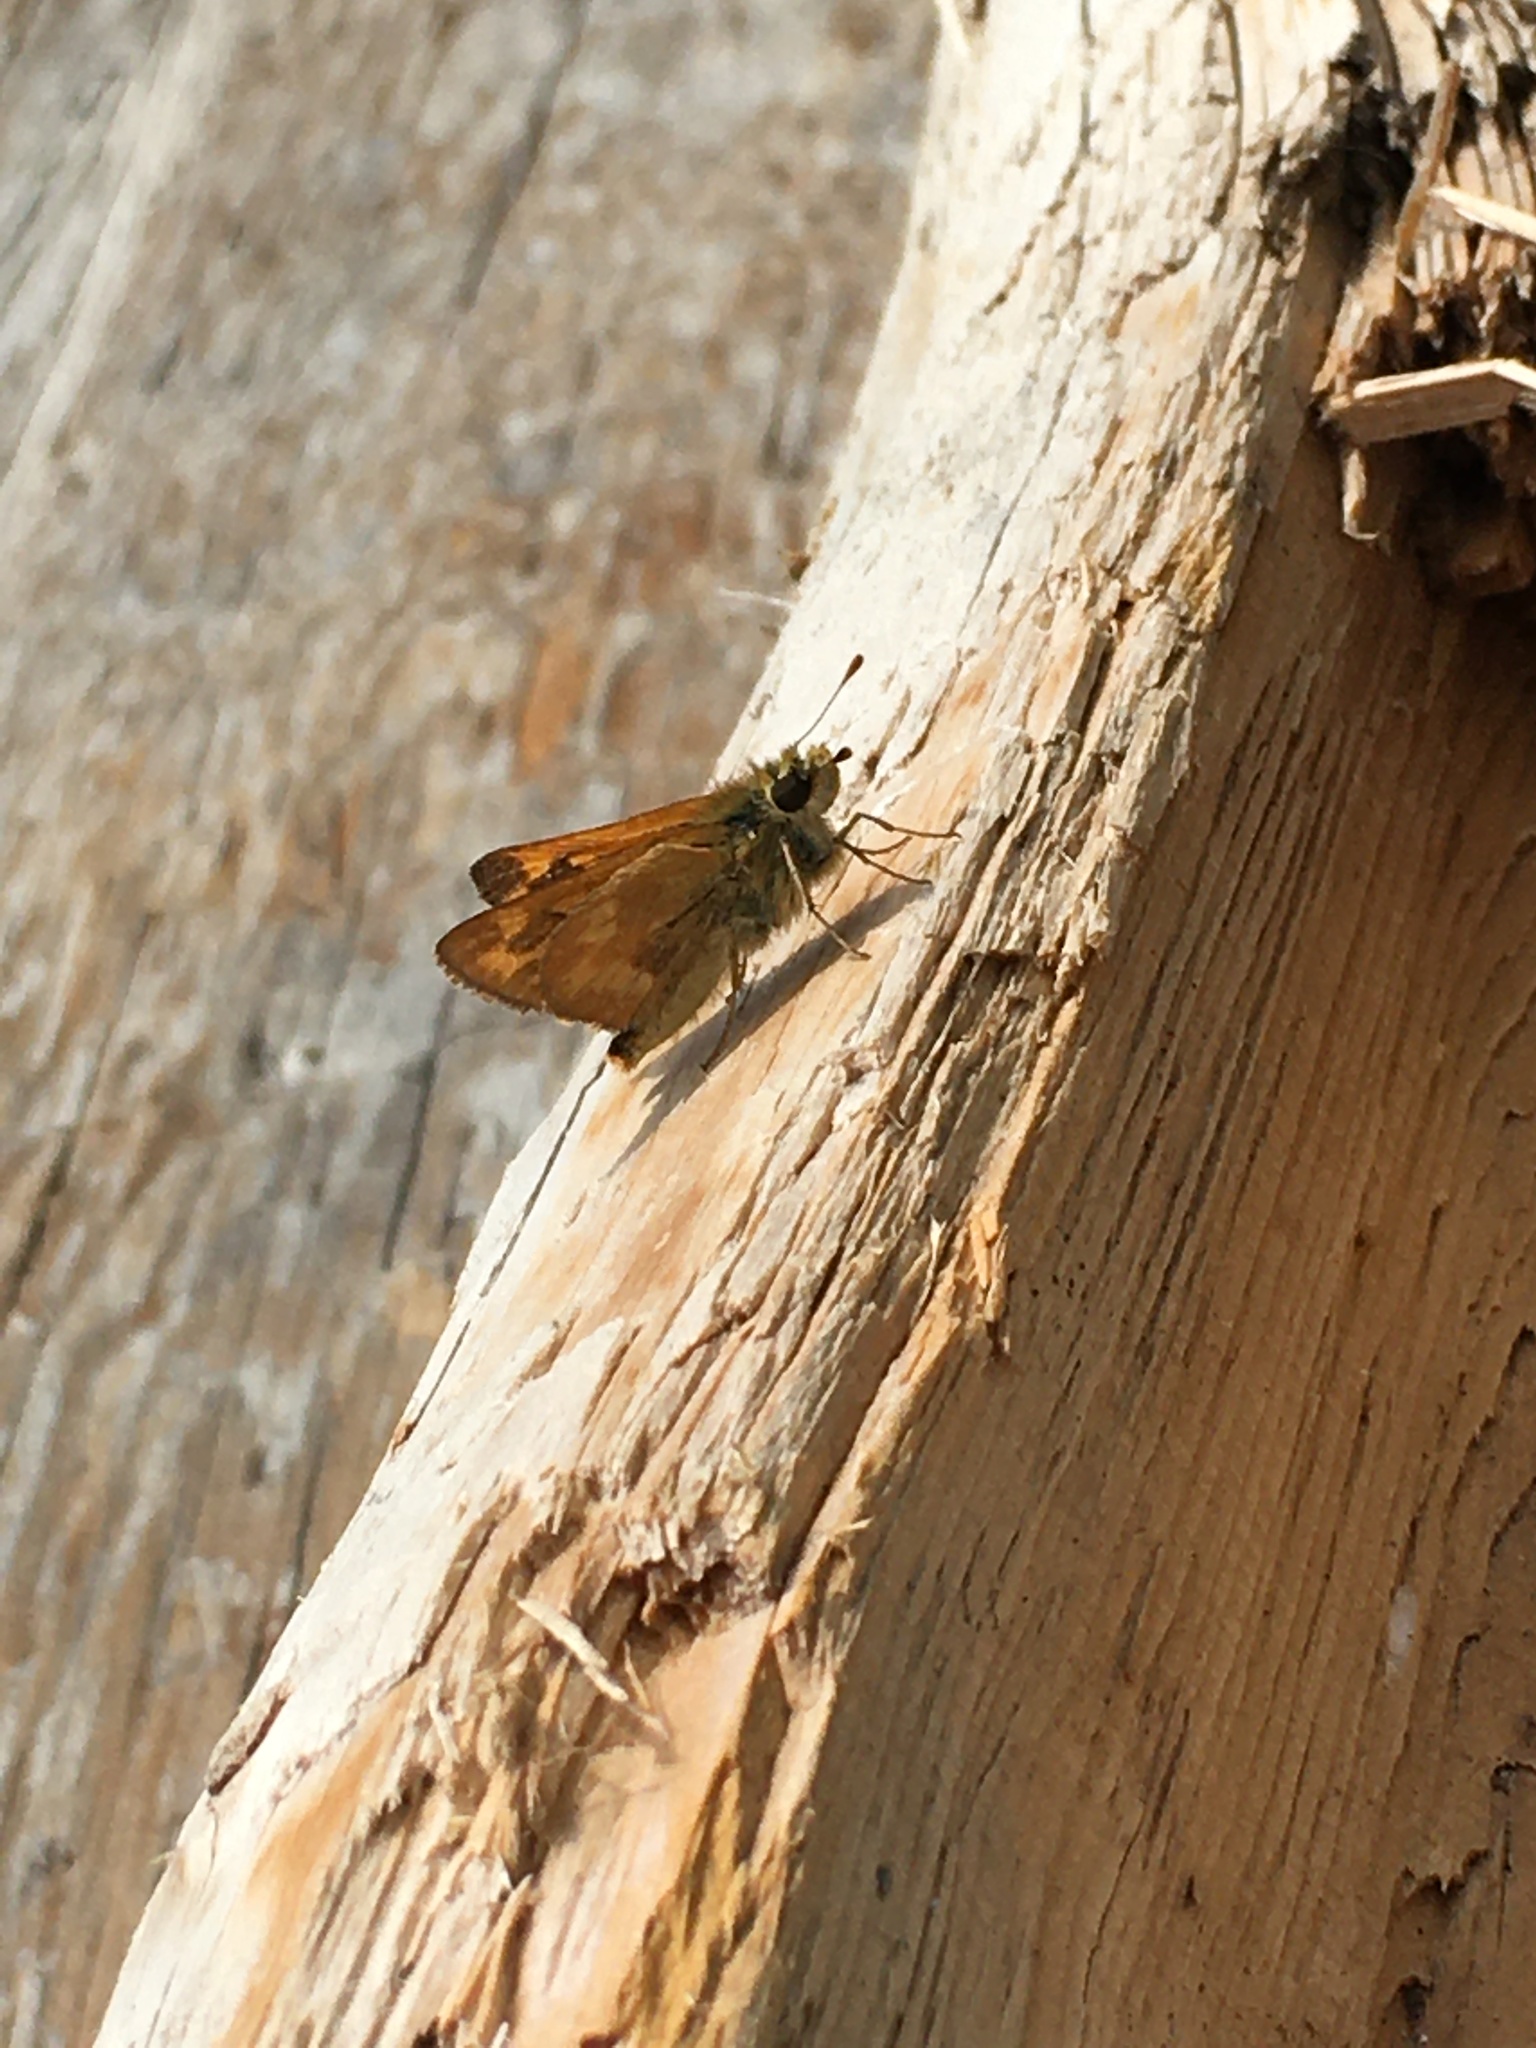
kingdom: Animalia
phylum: Arthropoda
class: Insecta
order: Lepidoptera
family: Hesperiidae
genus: Ochlodes
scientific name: Ochlodes sylvanoides
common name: Woodland skipper
